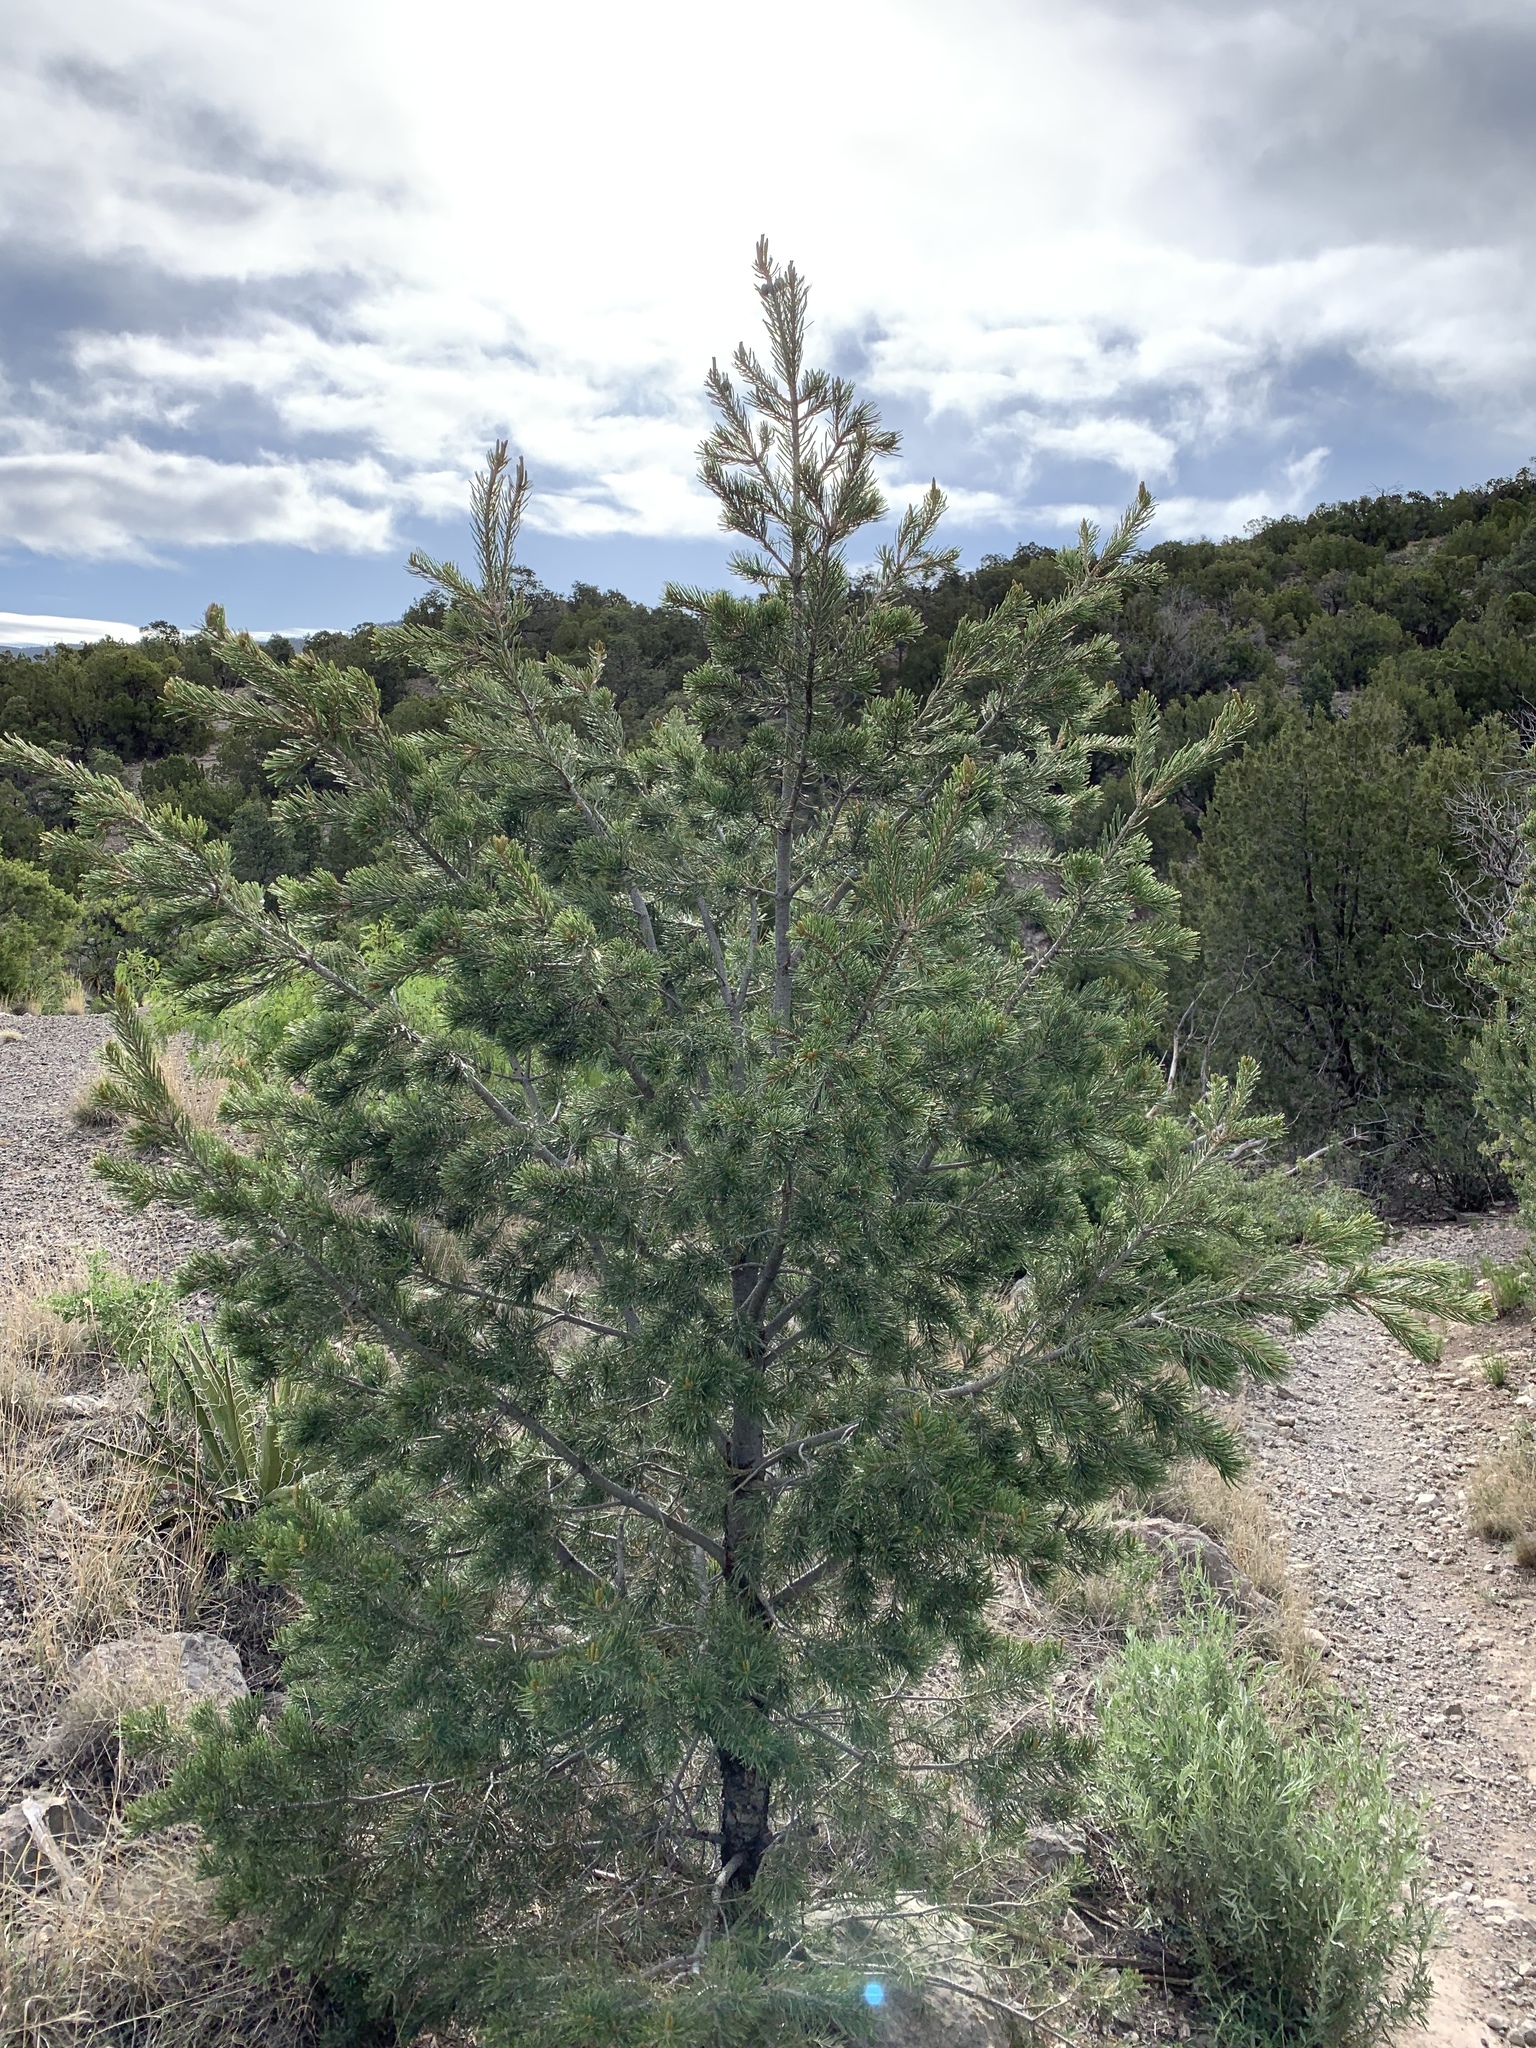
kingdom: Plantae
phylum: Tracheophyta
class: Pinopsida
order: Pinales
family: Pinaceae
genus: Pinus
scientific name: Pinus edulis
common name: Colorado pinyon
